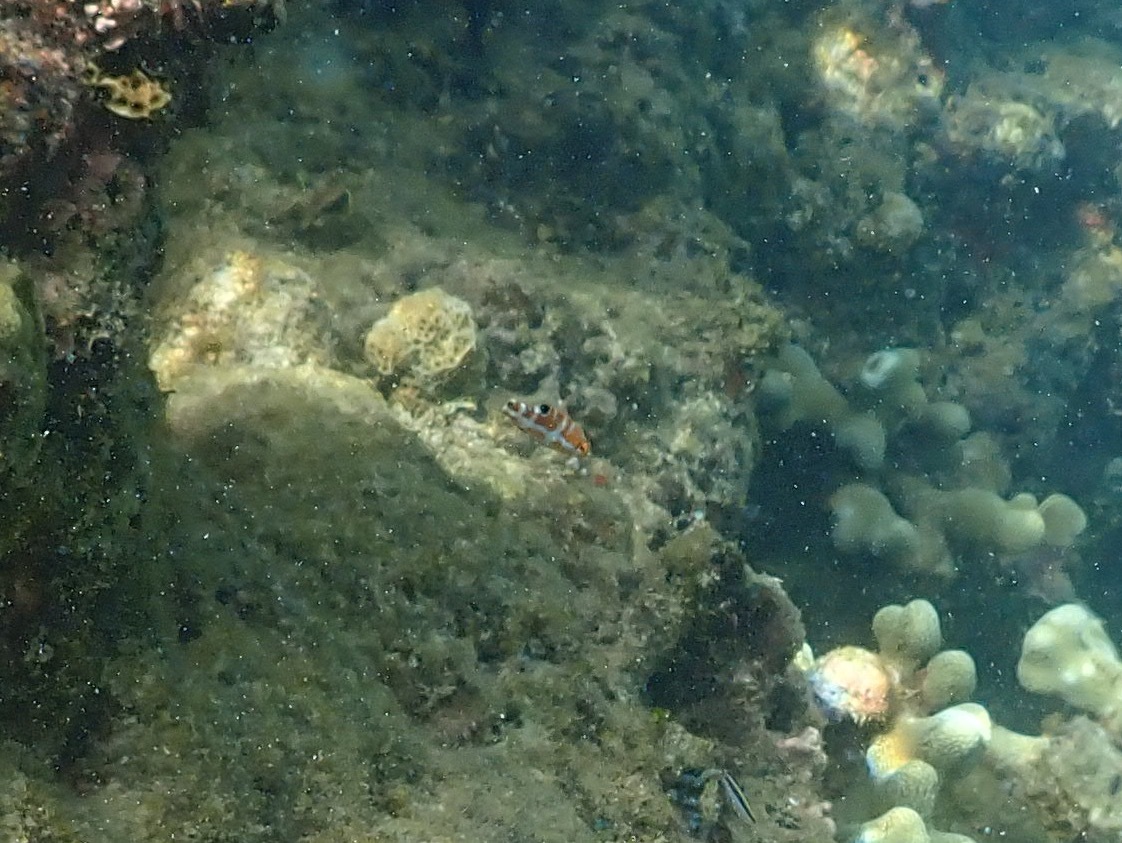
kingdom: Animalia
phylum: Chordata
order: Perciformes
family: Labridae
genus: Halichoeres
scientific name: Halichoeres radiatus
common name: Puddingwife
